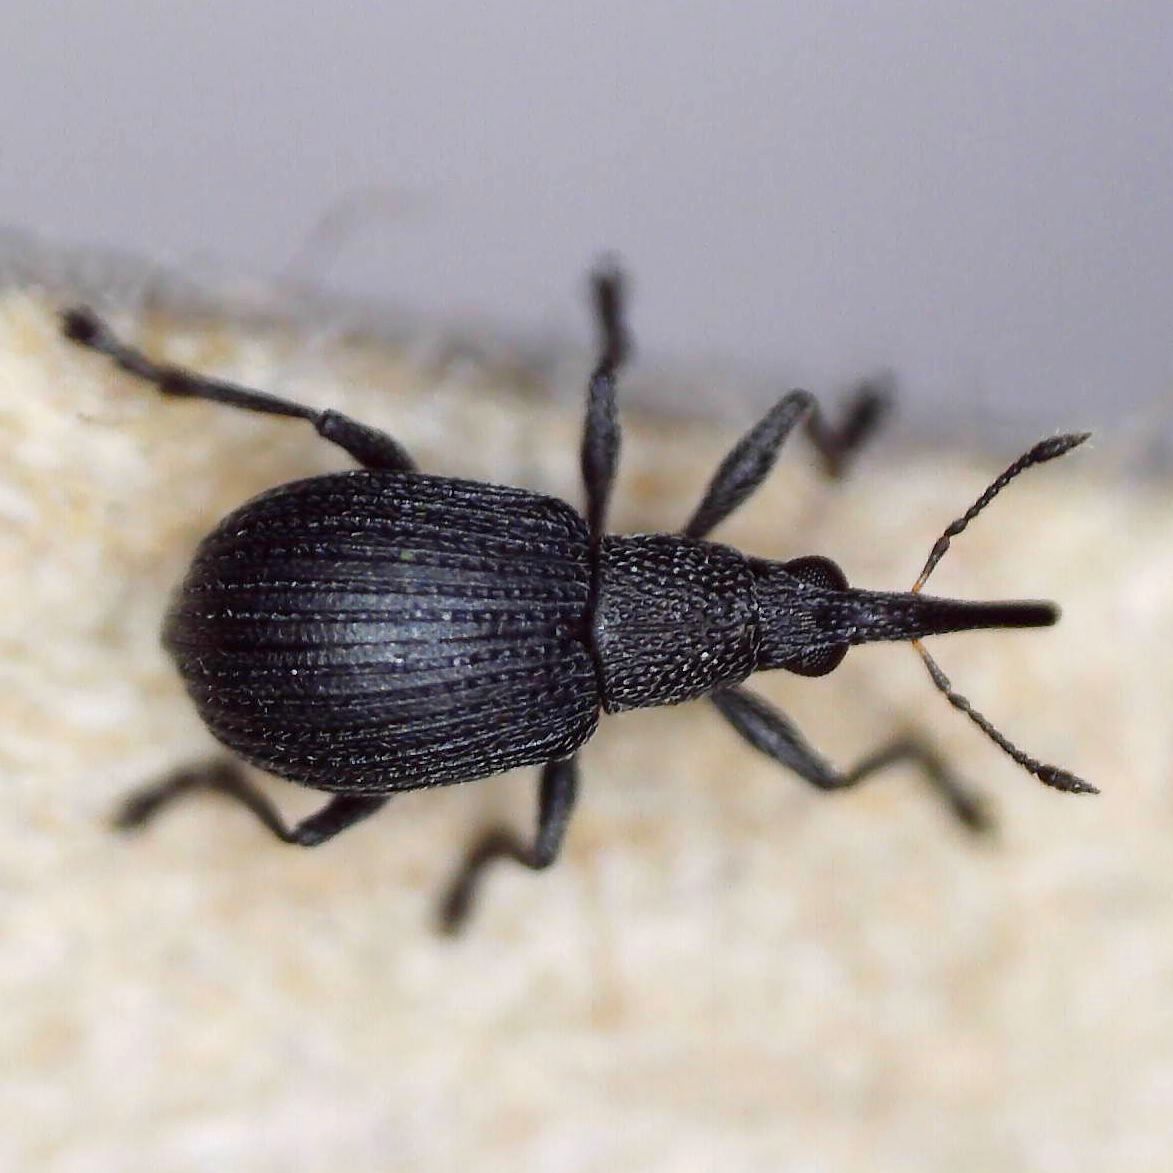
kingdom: Animalia
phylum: Arthropoda
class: Insecta
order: Coleoptera
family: Apionidae
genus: Oxystoma
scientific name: Oxystoma subulatum
